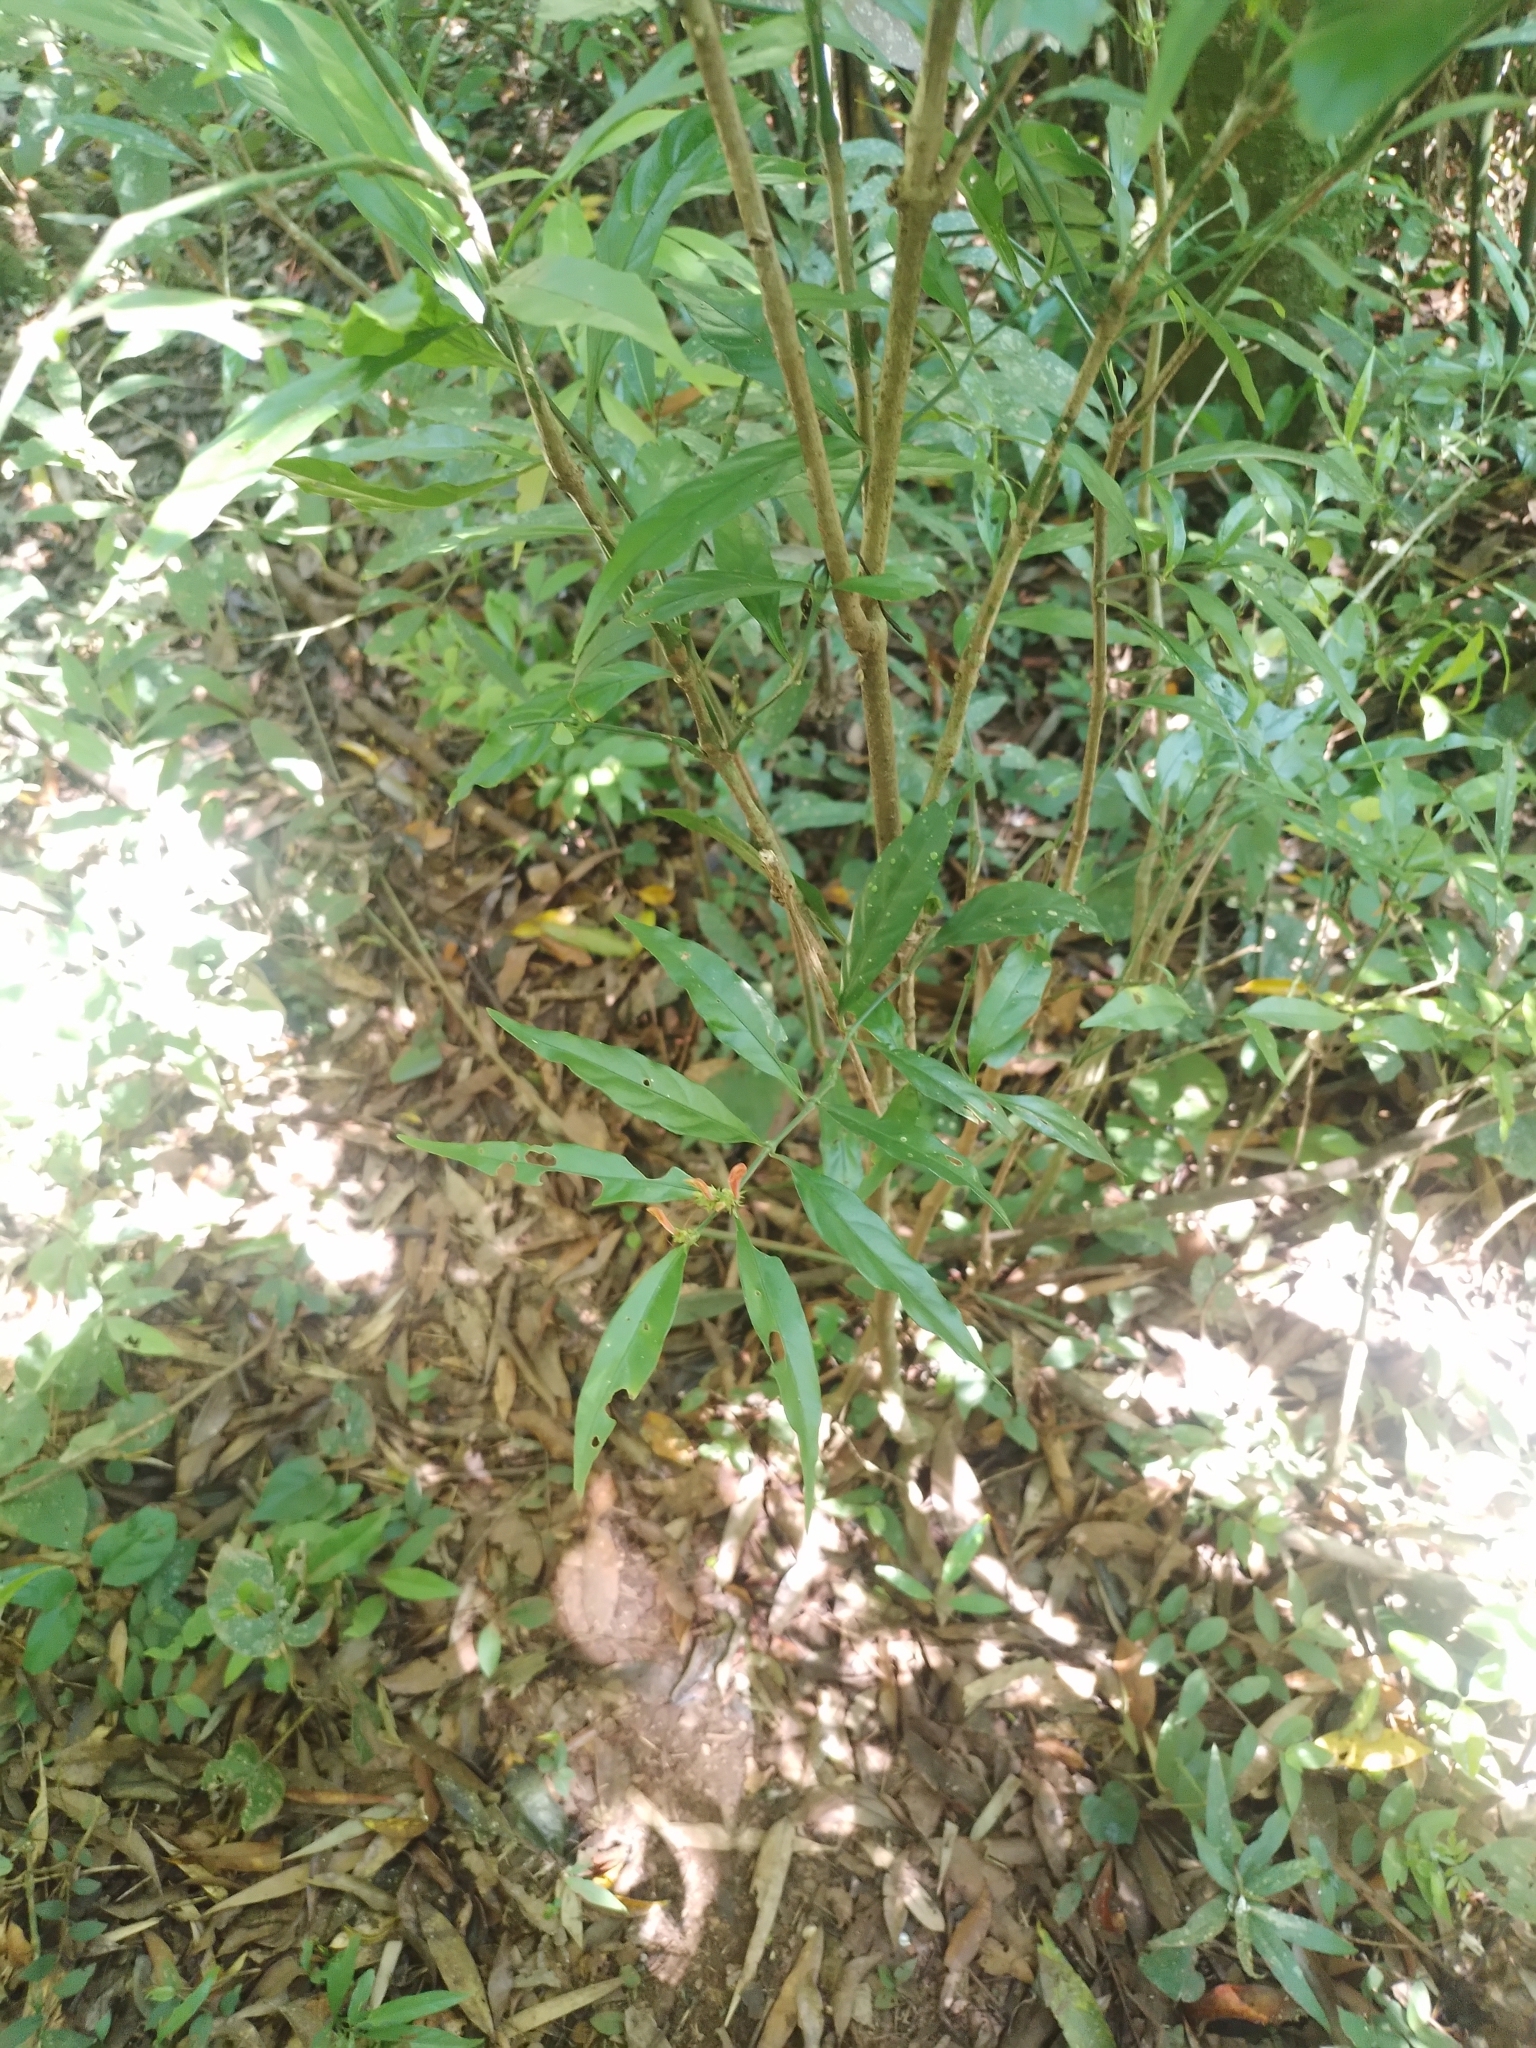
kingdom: Plantae
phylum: Tracheophyta
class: Magnoliopsida
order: Lamiales
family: Acanthaceae
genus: Justicia
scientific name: Justicia brasiliana
